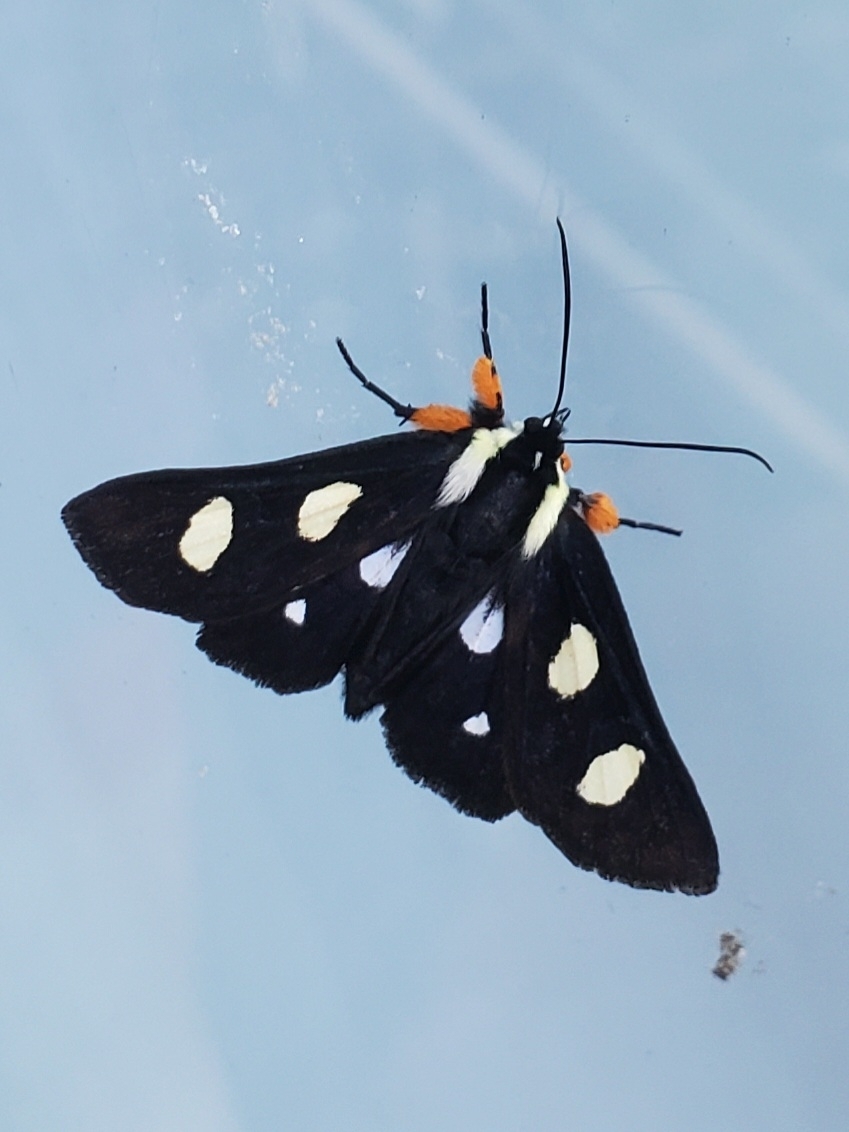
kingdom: Animalia
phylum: Arthropoda
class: Insecta
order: Lepidoptera
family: Noctuidae
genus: Alypia
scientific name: Alypia octomaculata
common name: Eight-spotted forester
